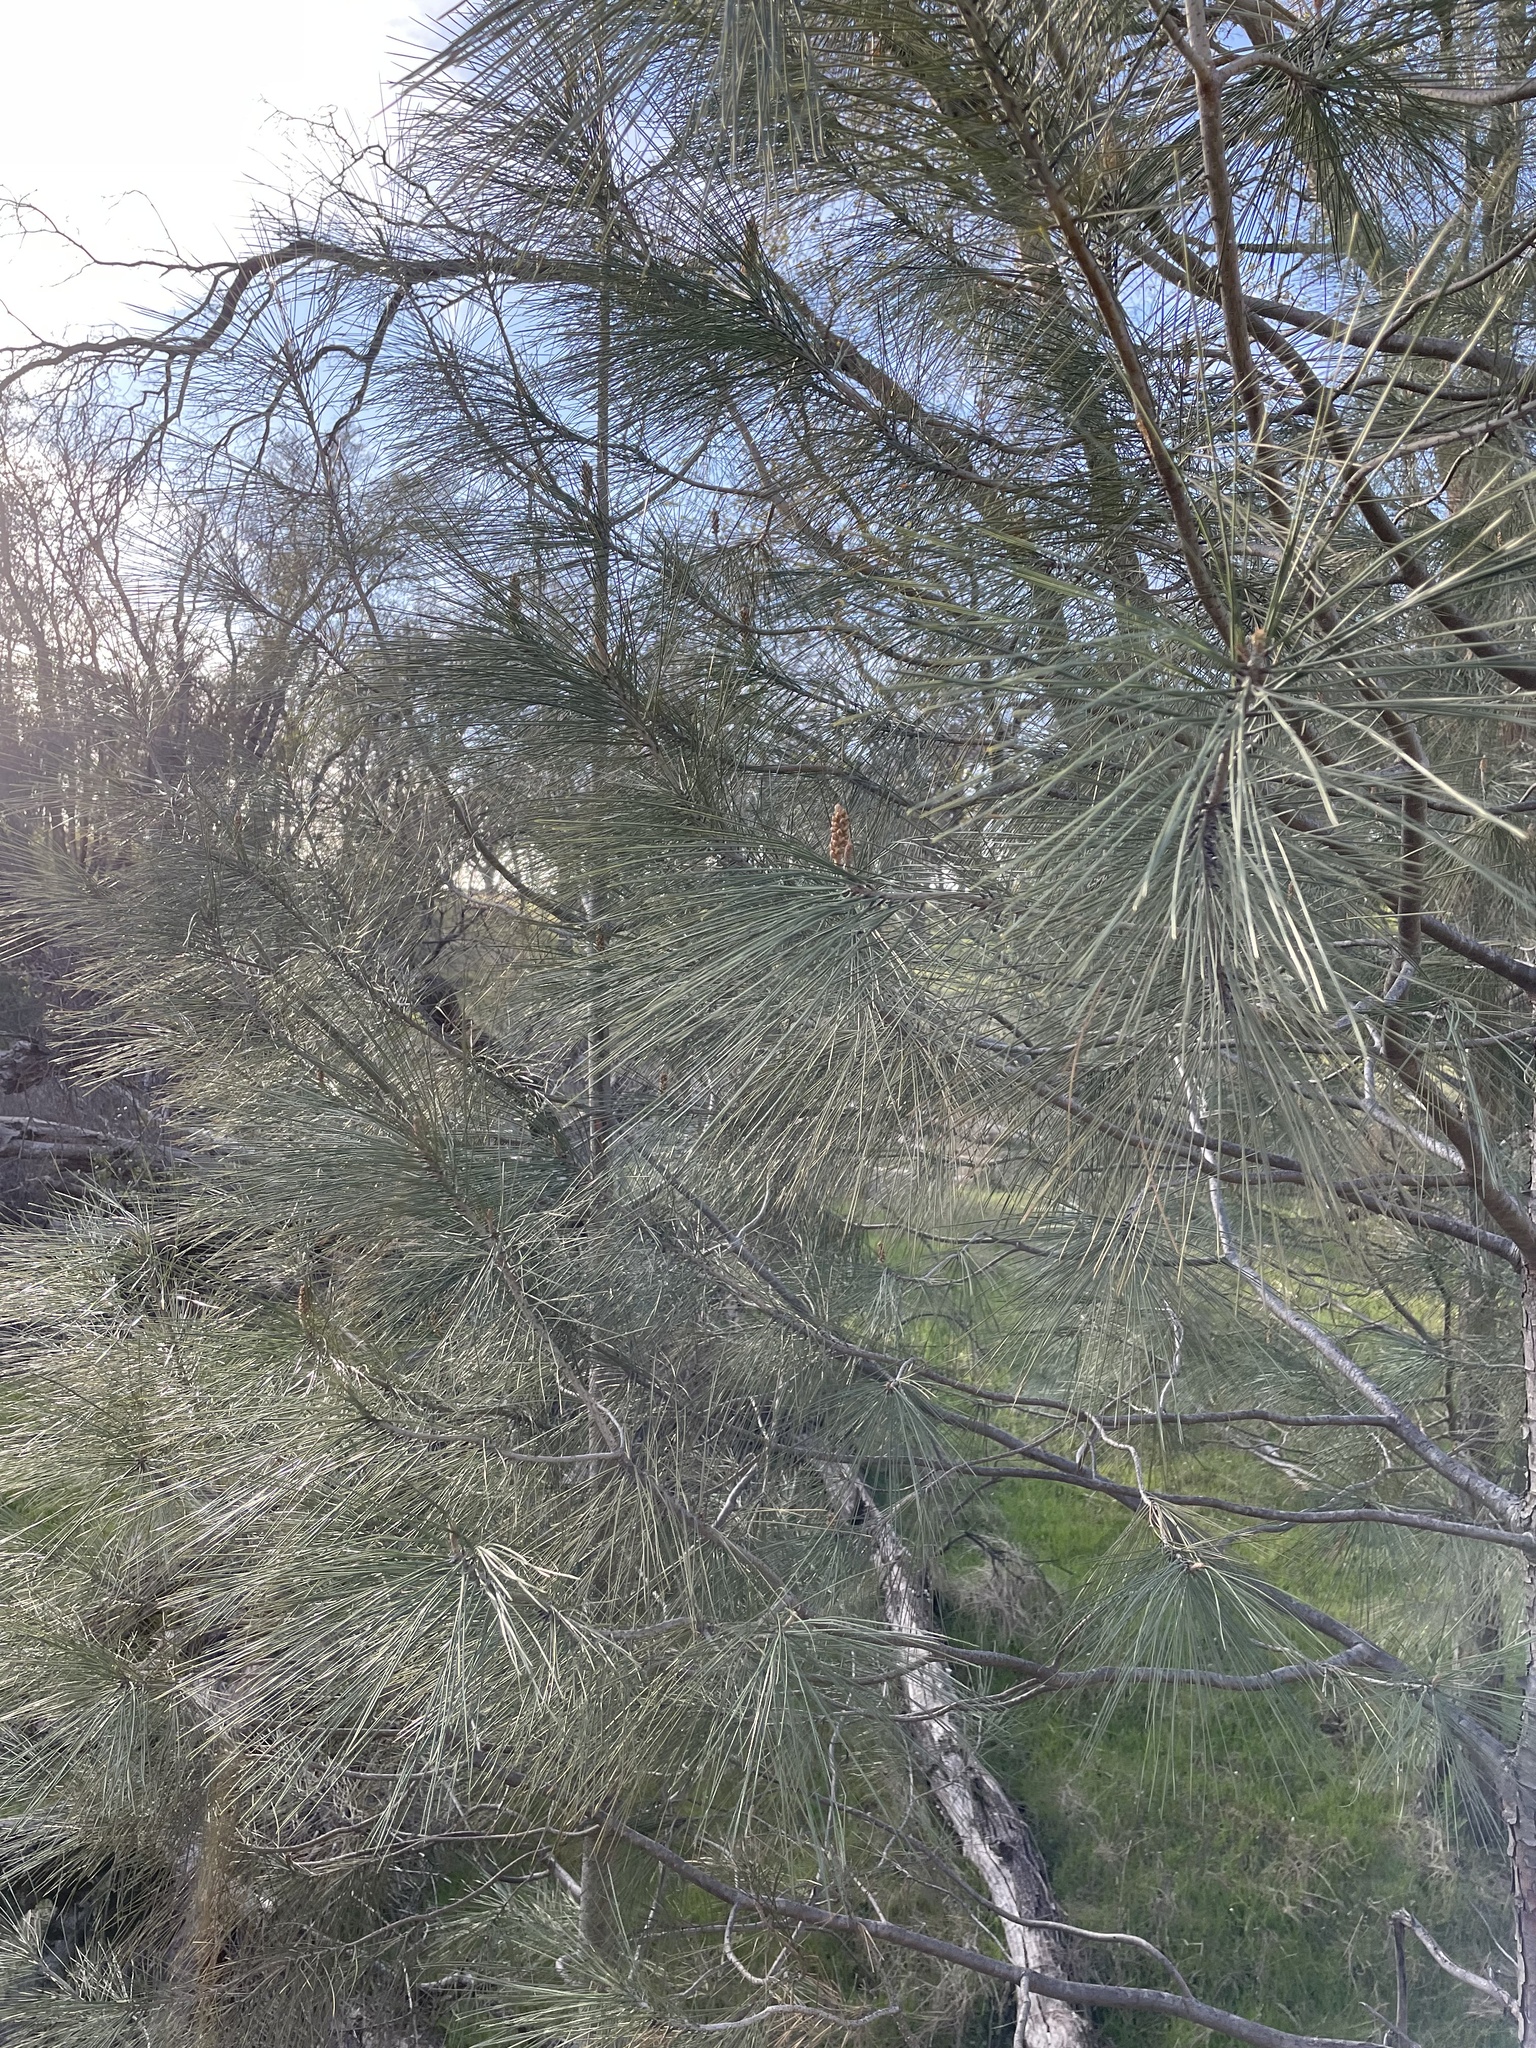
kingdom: Plantae
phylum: Tracheophyta
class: Pinopsida
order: Pinales
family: Pinaceae
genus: Pinus
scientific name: Pinus sabiniana
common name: Bull pine
